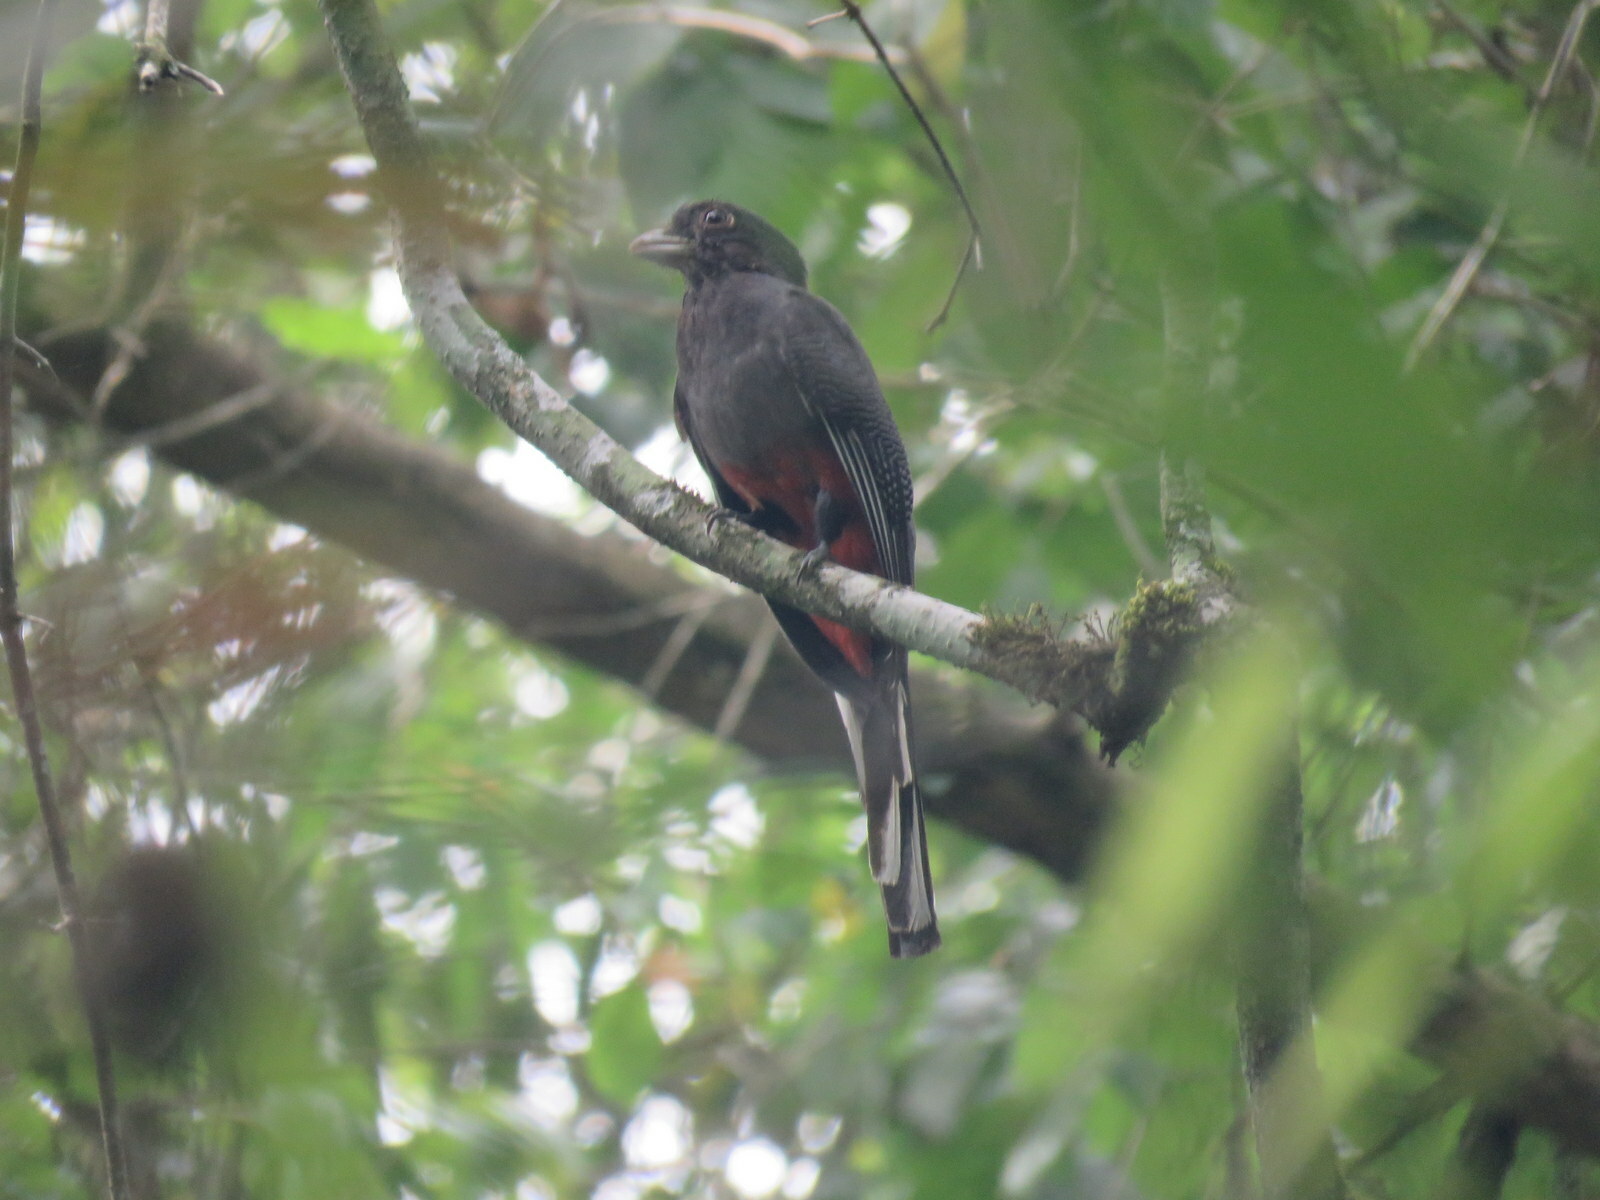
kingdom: Animalia
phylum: Chordata
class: Aves
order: Trogoniformes
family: Trogonidae
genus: Trogon
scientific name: Trogon surrucura
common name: Surucua trogon
